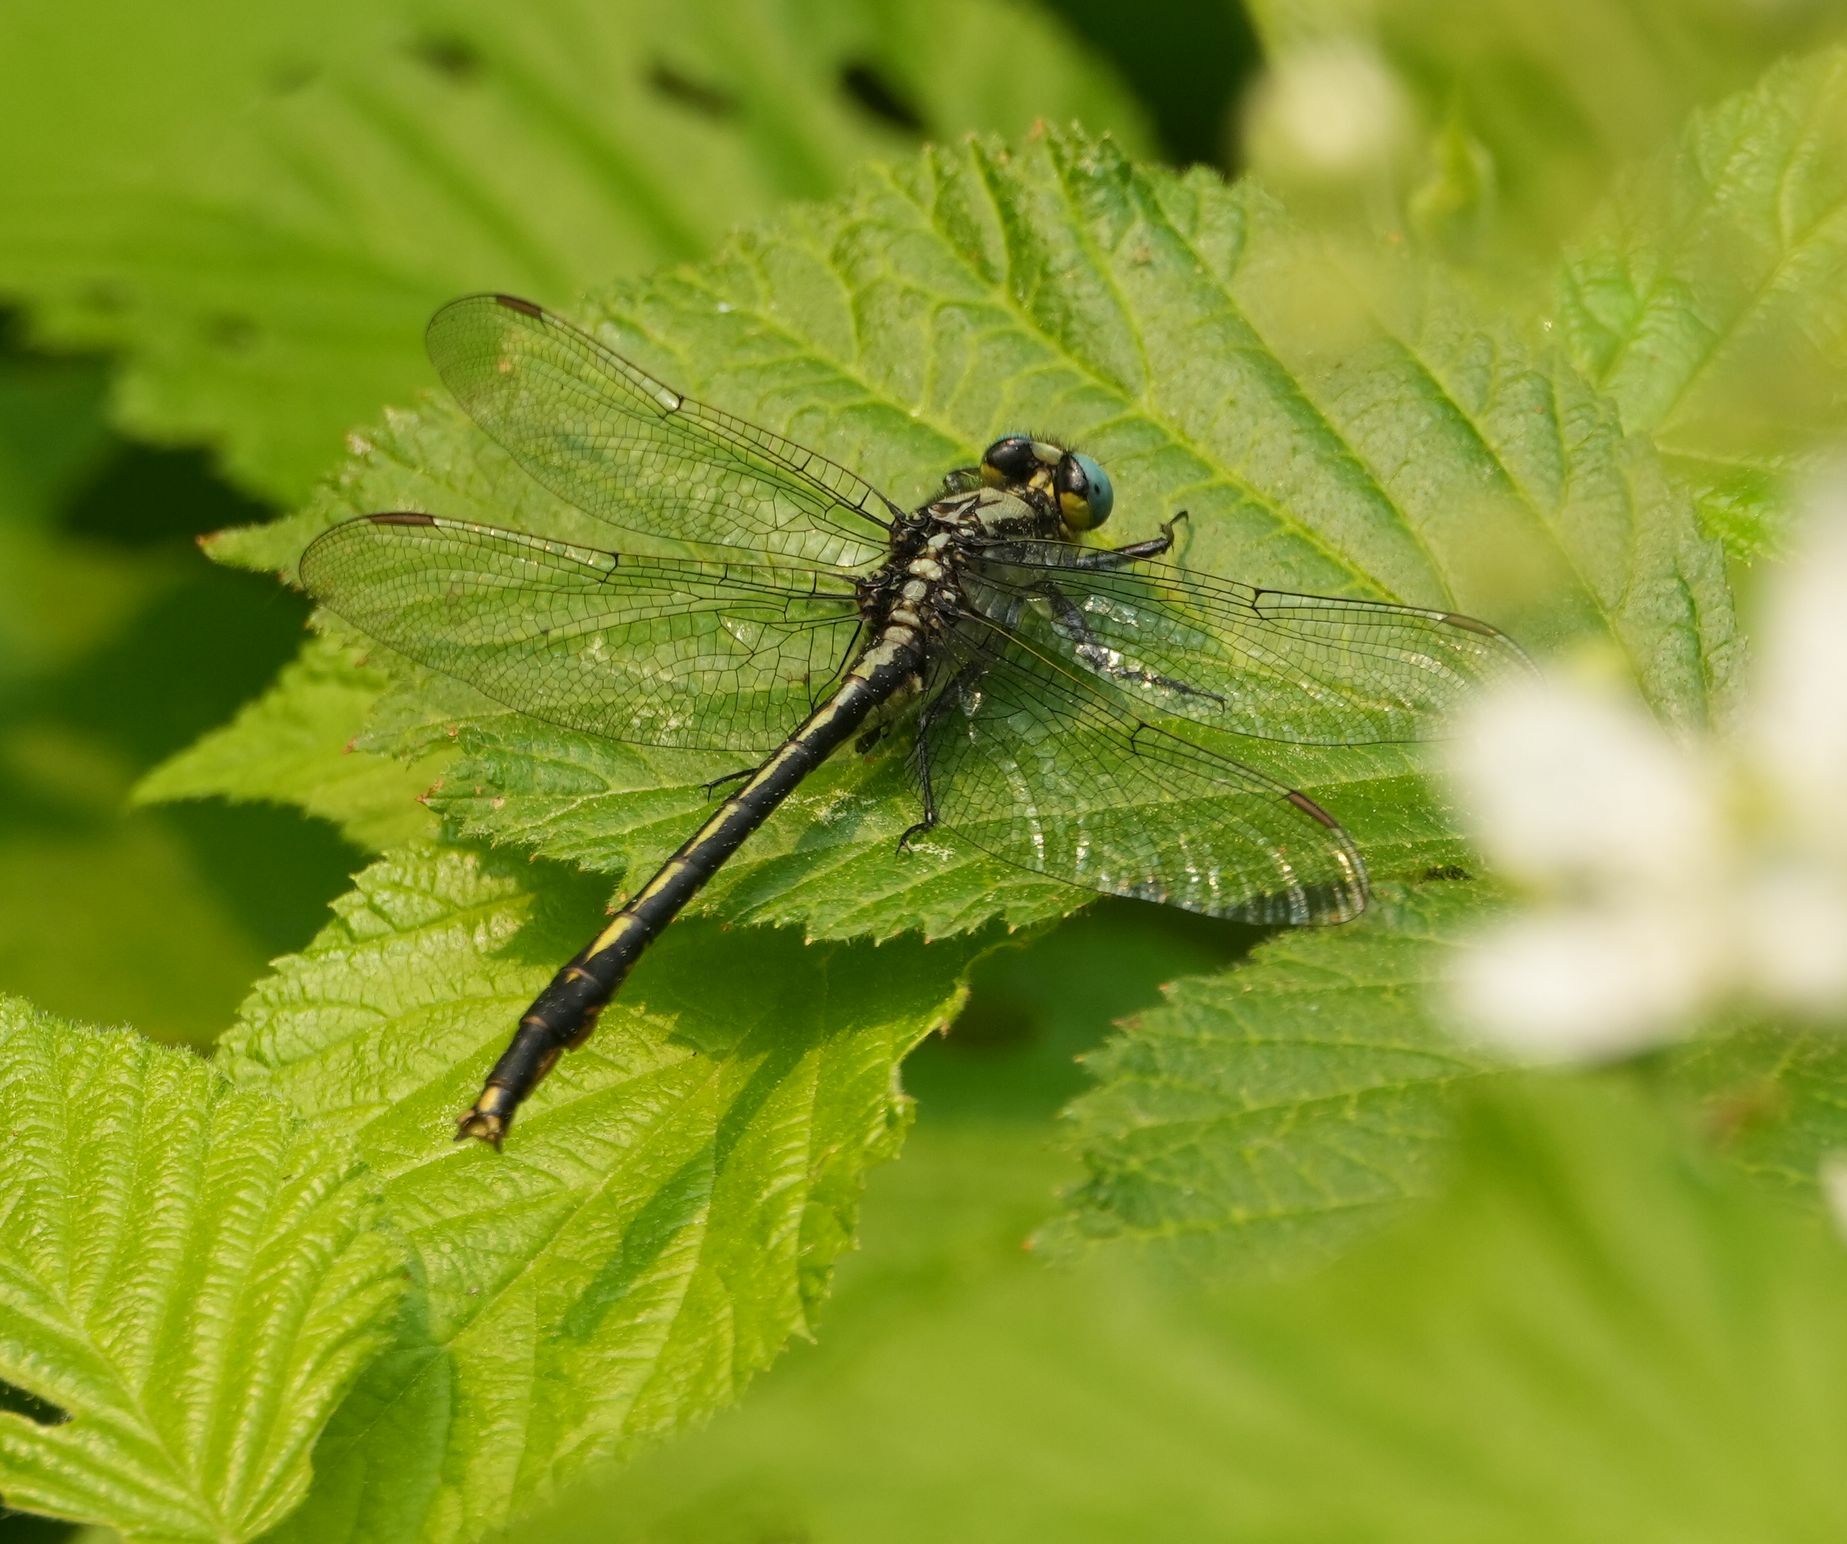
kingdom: Animalia
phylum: Arthropoda
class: Insecta
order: Odonata
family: Gomphidae
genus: Arigomphus
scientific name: Arigomphus furcifer
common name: Lilypad clubtail
